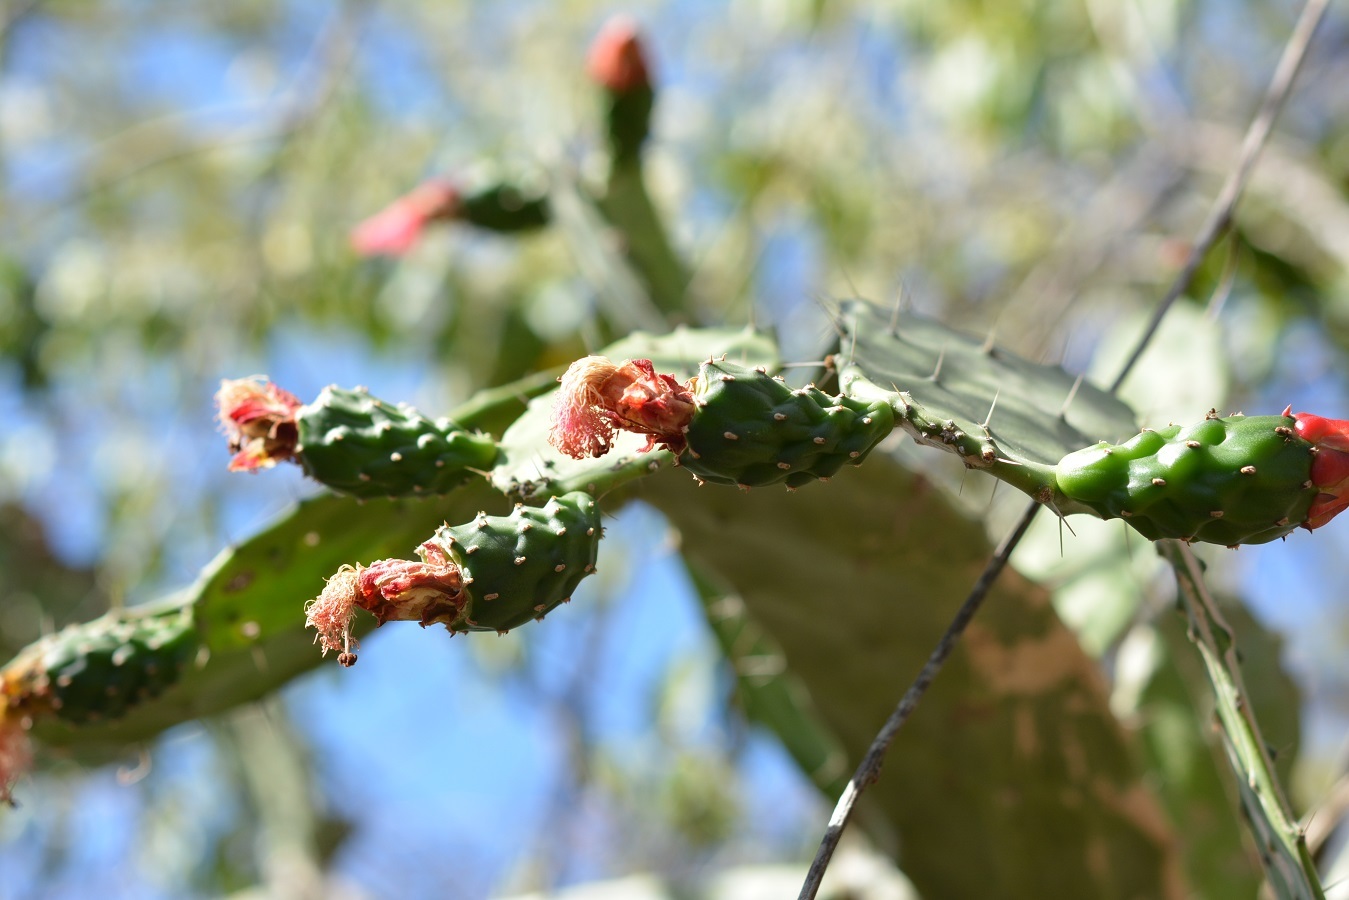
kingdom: Plantae
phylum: Tracheophyta
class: Magnoliopsida
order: Caryophyllales
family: Cactaceae
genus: Opuntia
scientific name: Opuntia dejecta
